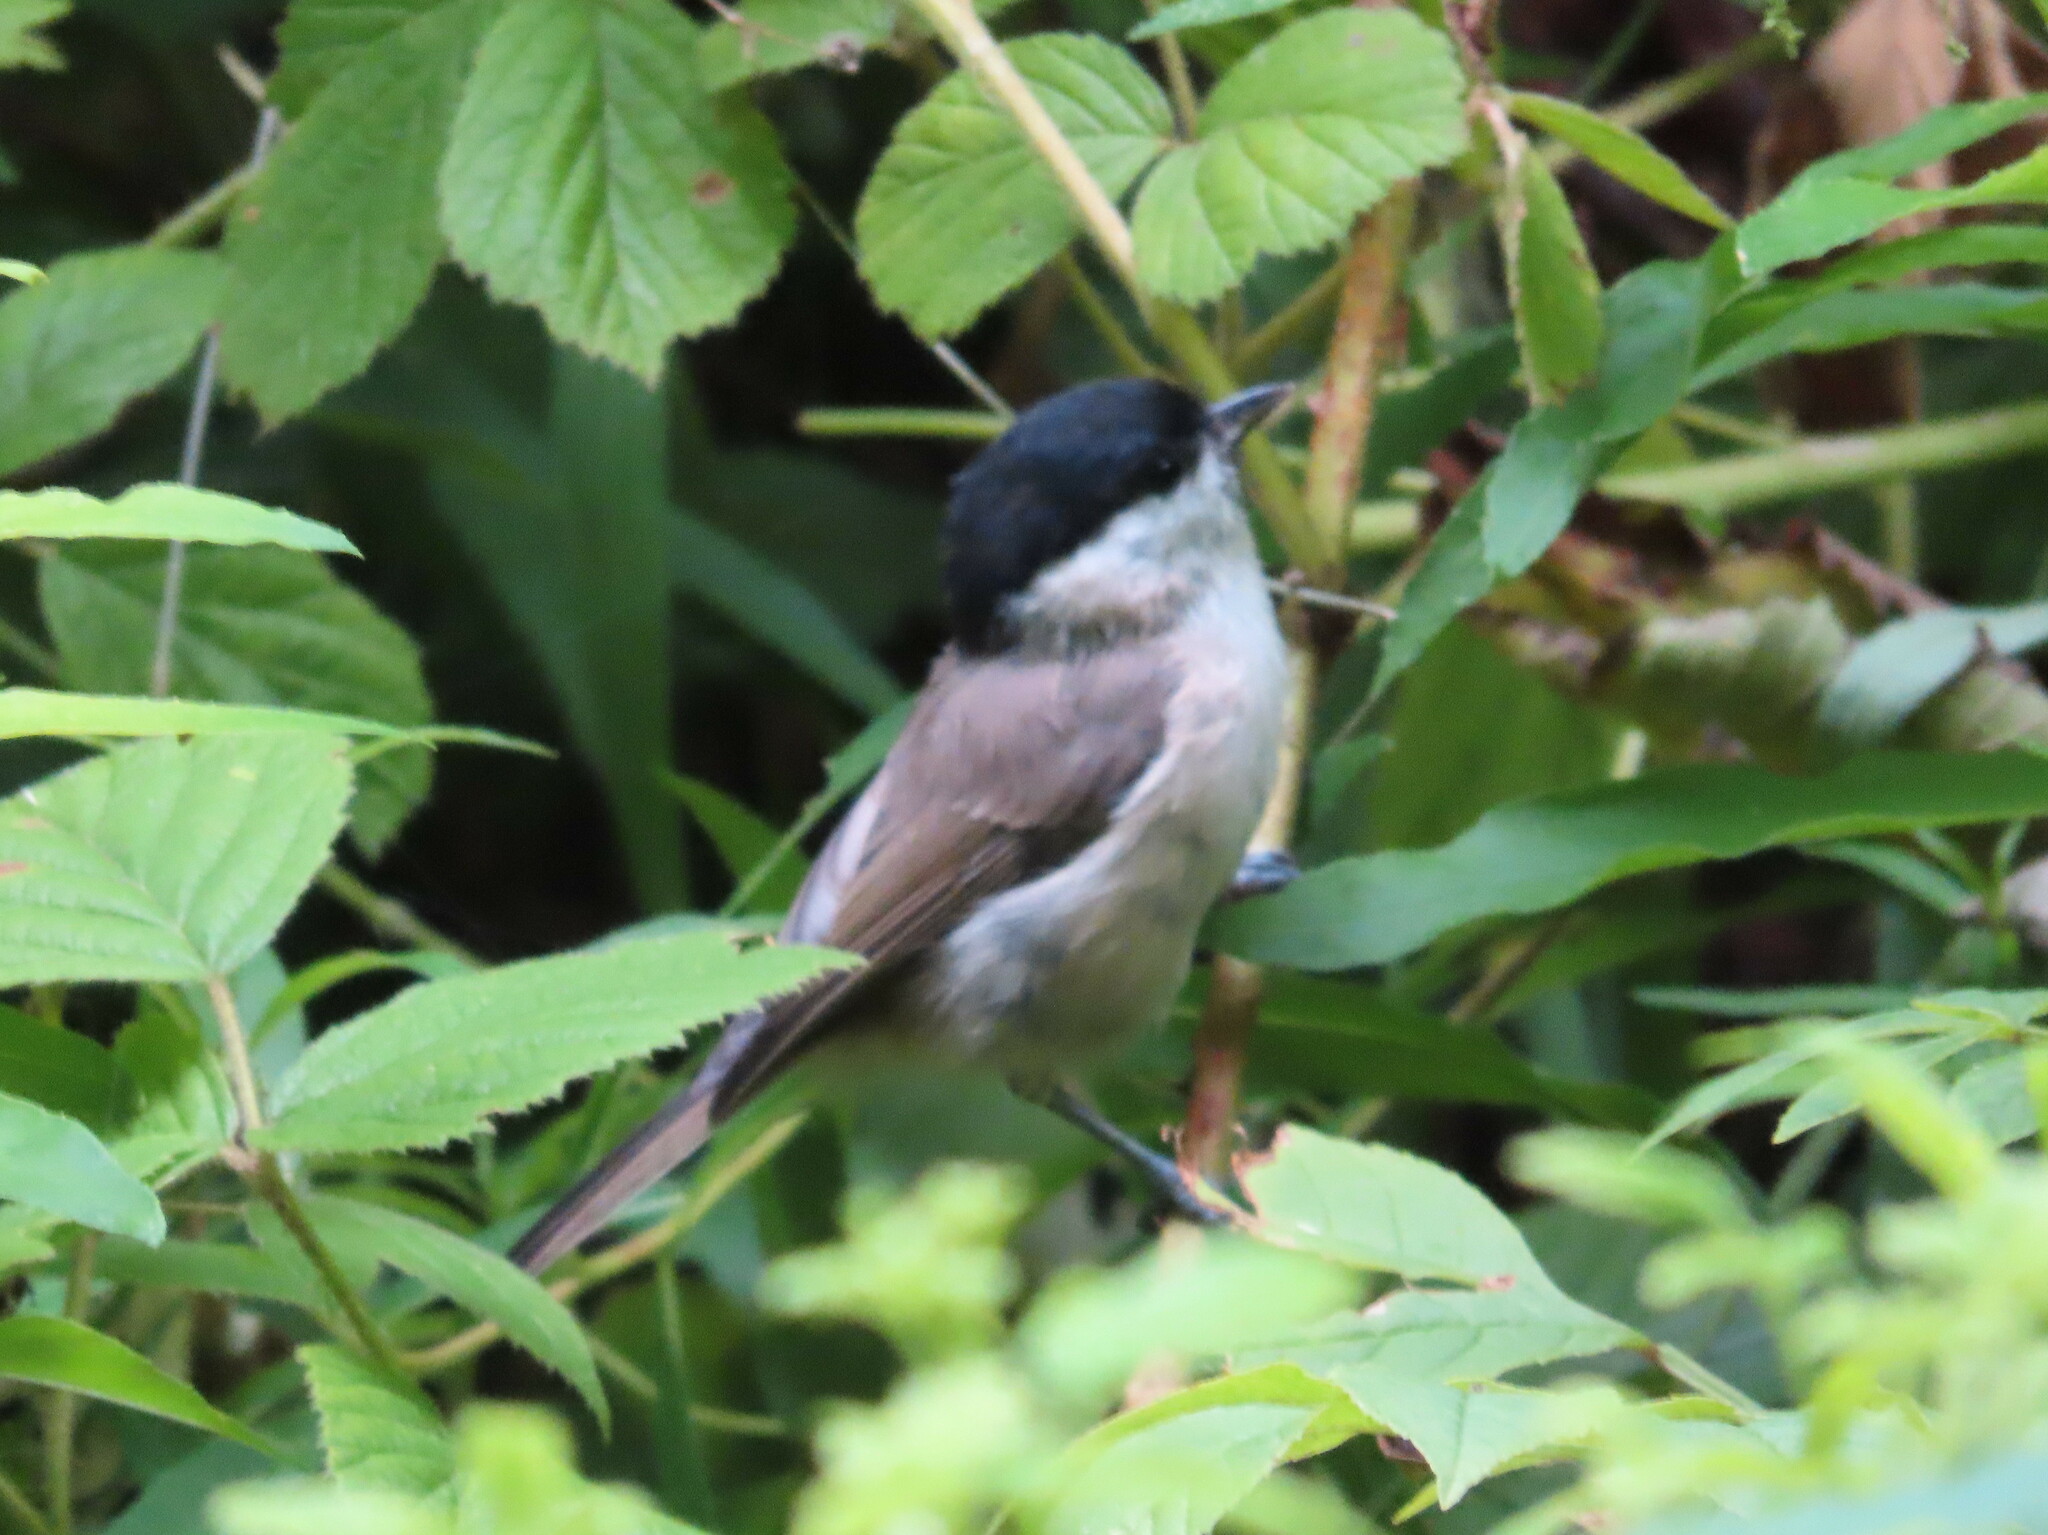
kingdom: Animalia
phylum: Chordata
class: Aves
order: Passeriformes
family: Paridae
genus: Poecile
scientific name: Poecile palustris
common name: Marsh tit
